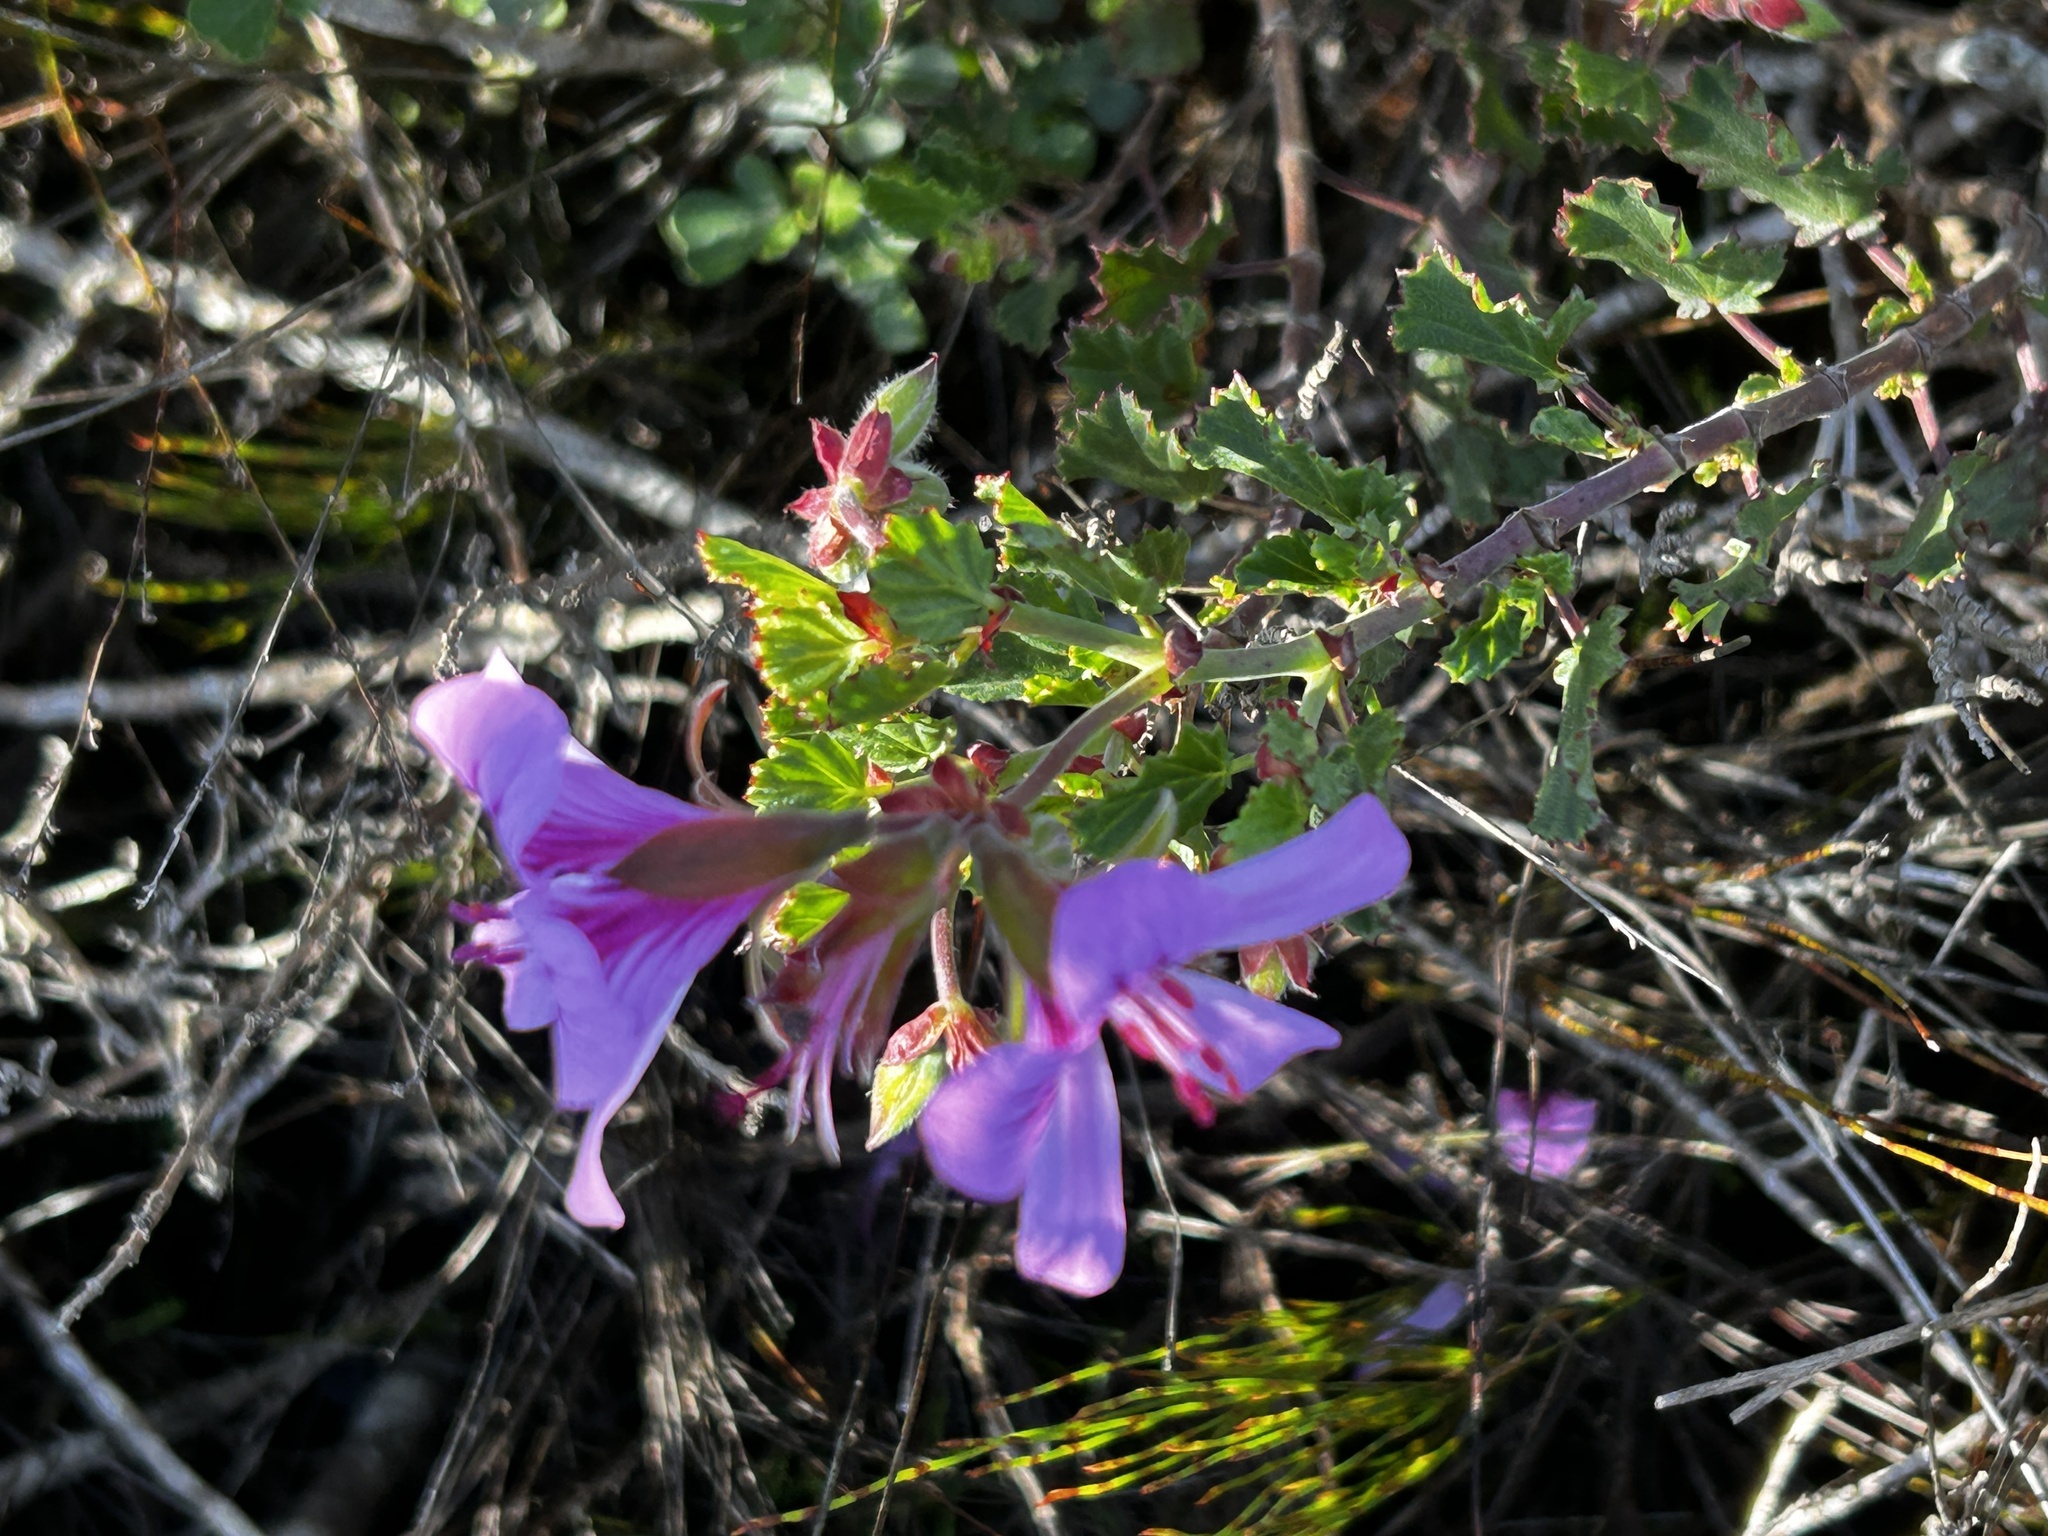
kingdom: Plantae
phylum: Tracheophyta
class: Magnoliopsida
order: Geraniales
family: Geraniaceae
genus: Pelargonium
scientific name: Pelargonium betulinum
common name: Birch-leaf pelargonium
